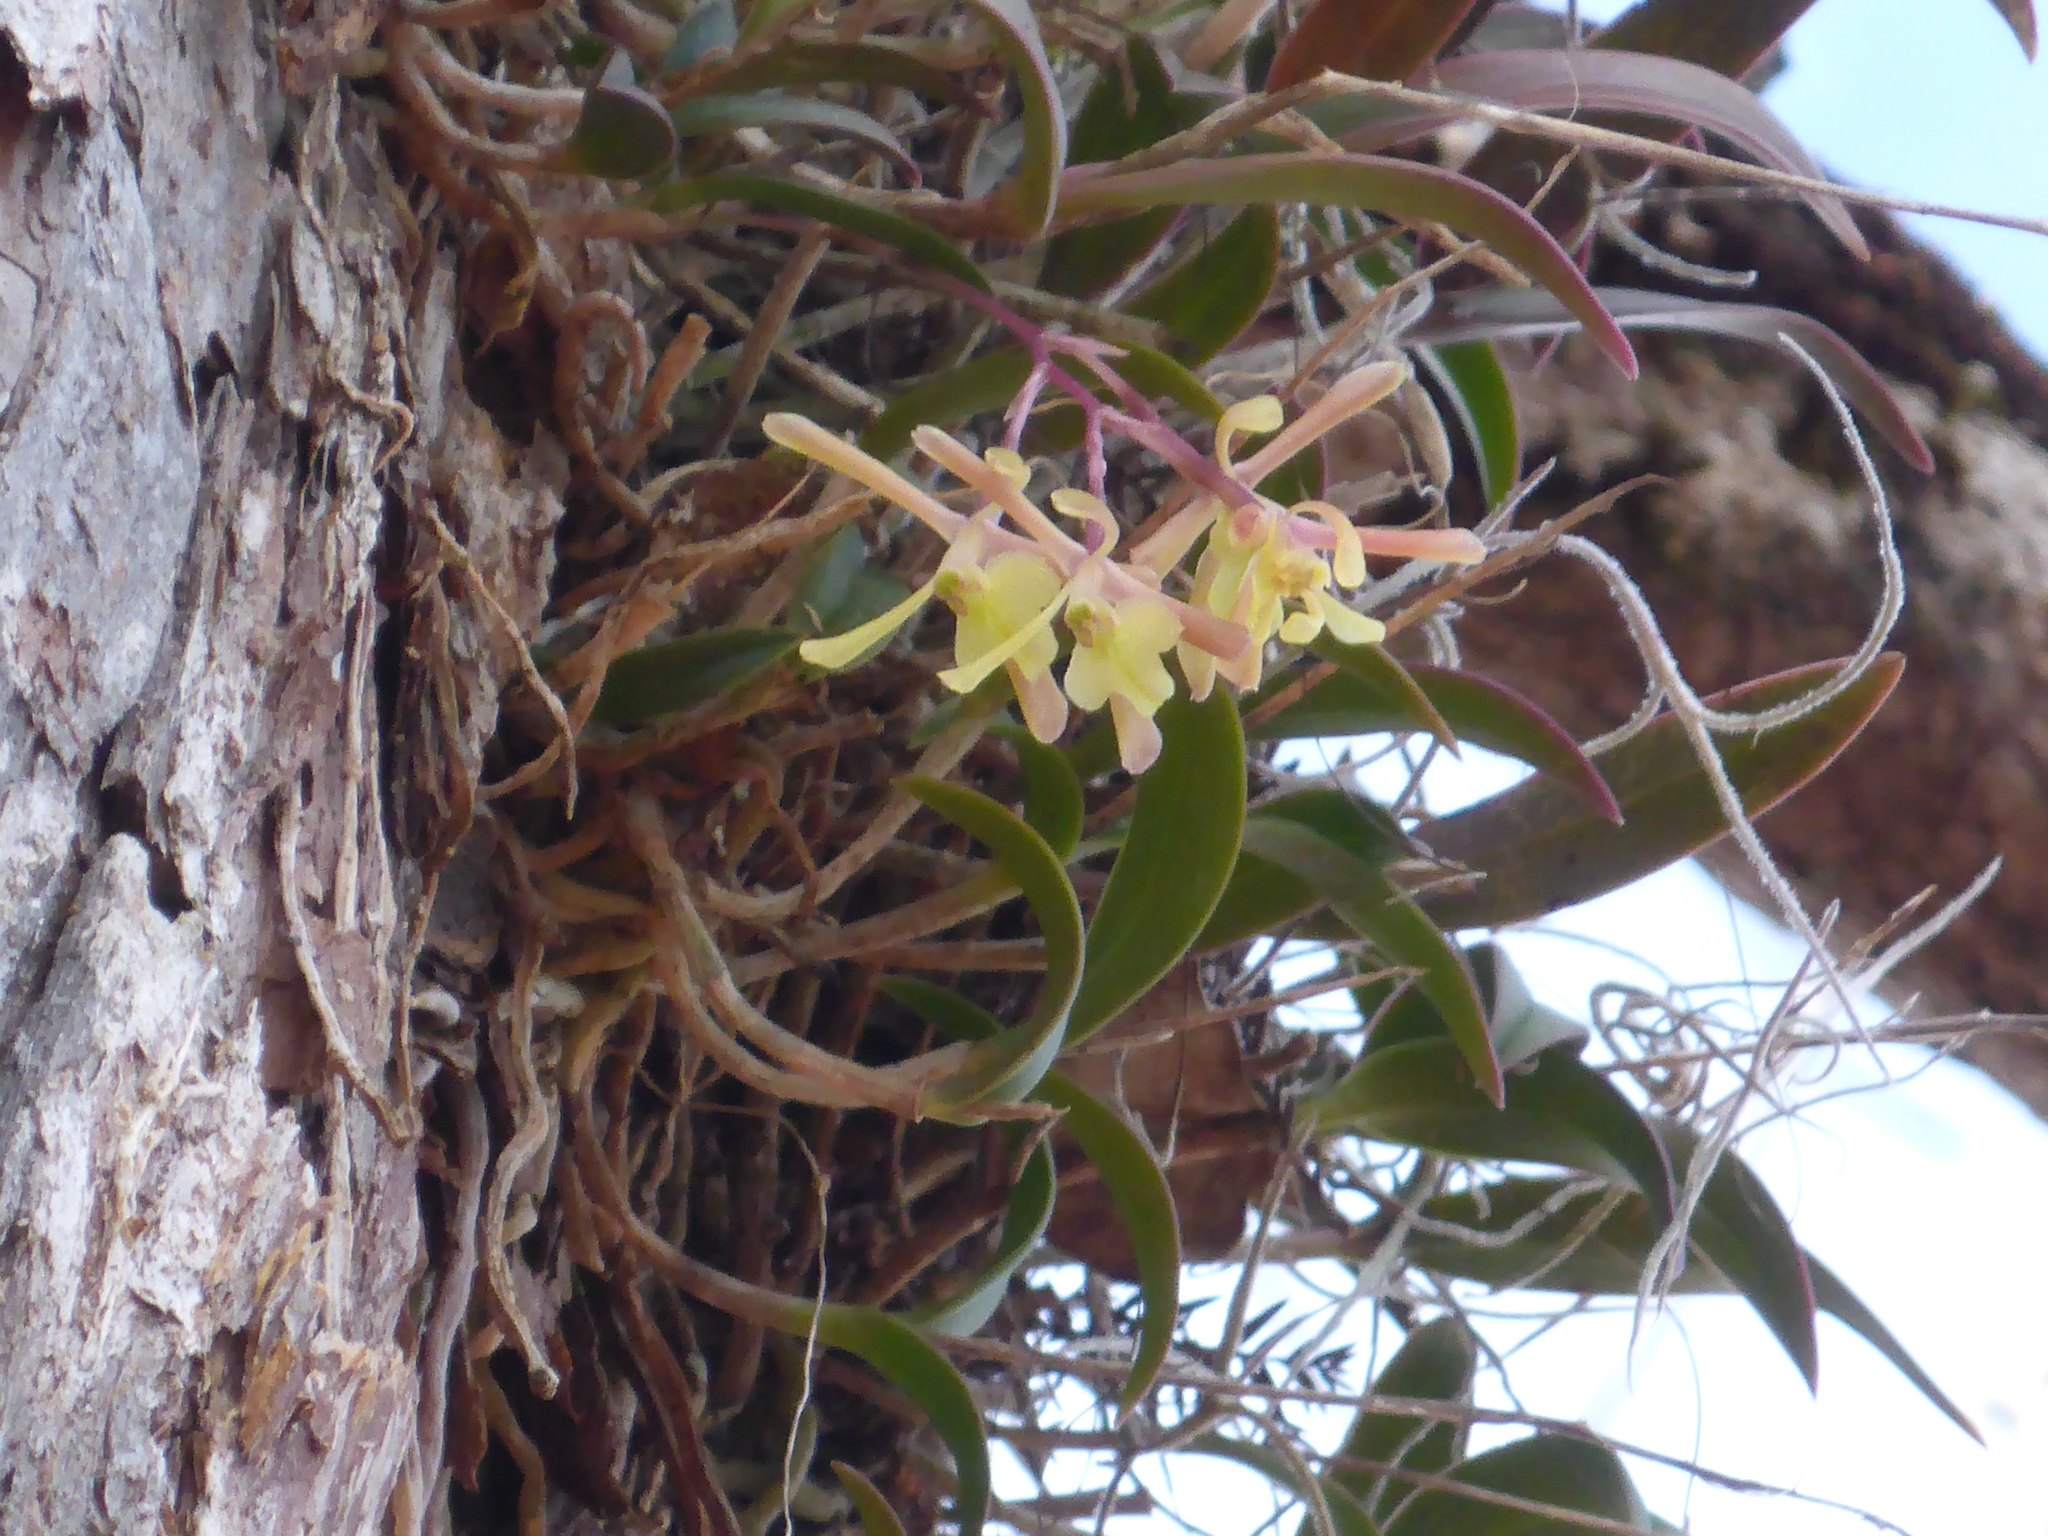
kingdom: Plantae
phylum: Tracheophyta
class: Liliopsida
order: Asparagales
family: Orchidaceae
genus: Epidendrum
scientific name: Epidendrum conopseum
